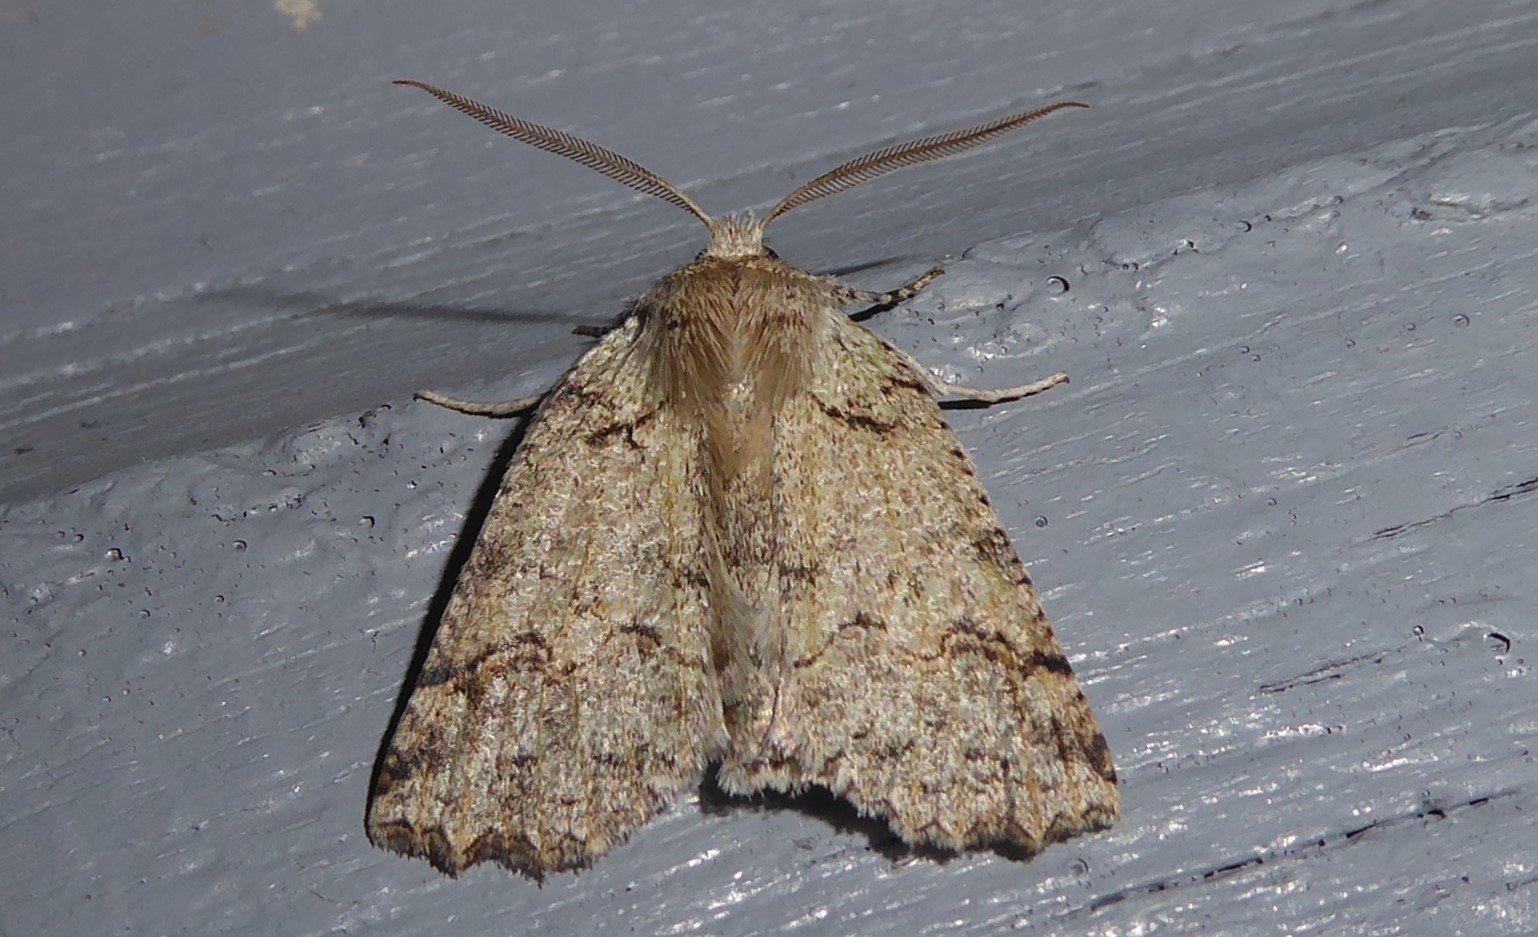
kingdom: Animalia
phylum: Arthropoda
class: Insecta
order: Lepidoptera
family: Geometridae
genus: Declana
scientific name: Declana floccosa
